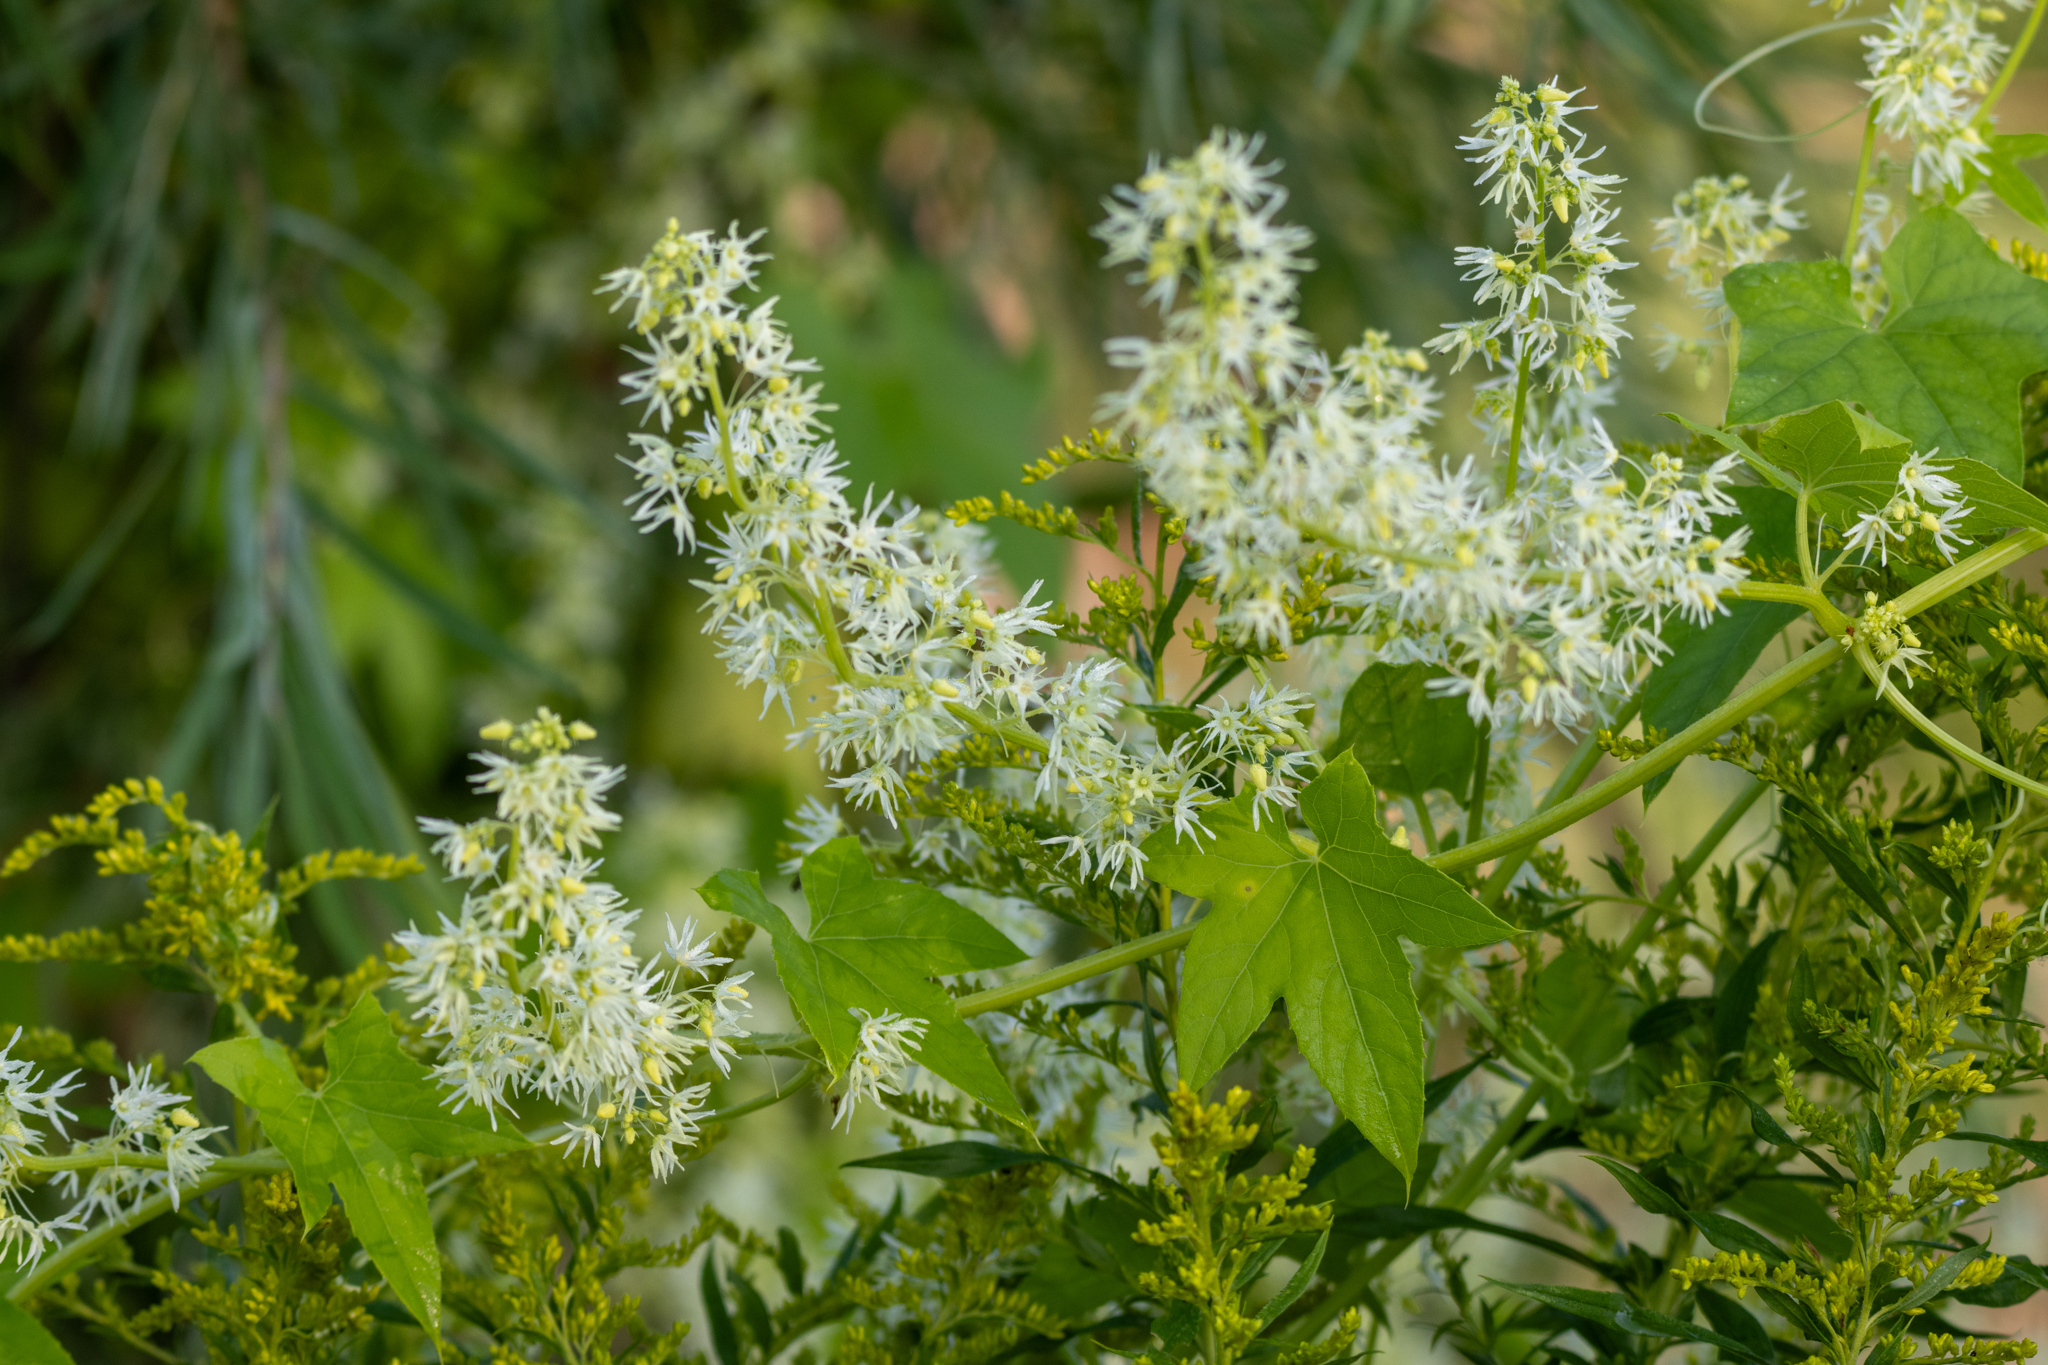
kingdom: Plantae
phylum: Tracheophyta
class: Magnoliopsida
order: Cucurbitales
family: Cucurbitaceae
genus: Echinocystis
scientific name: Echinocystis lobata
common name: Wild cucumber
